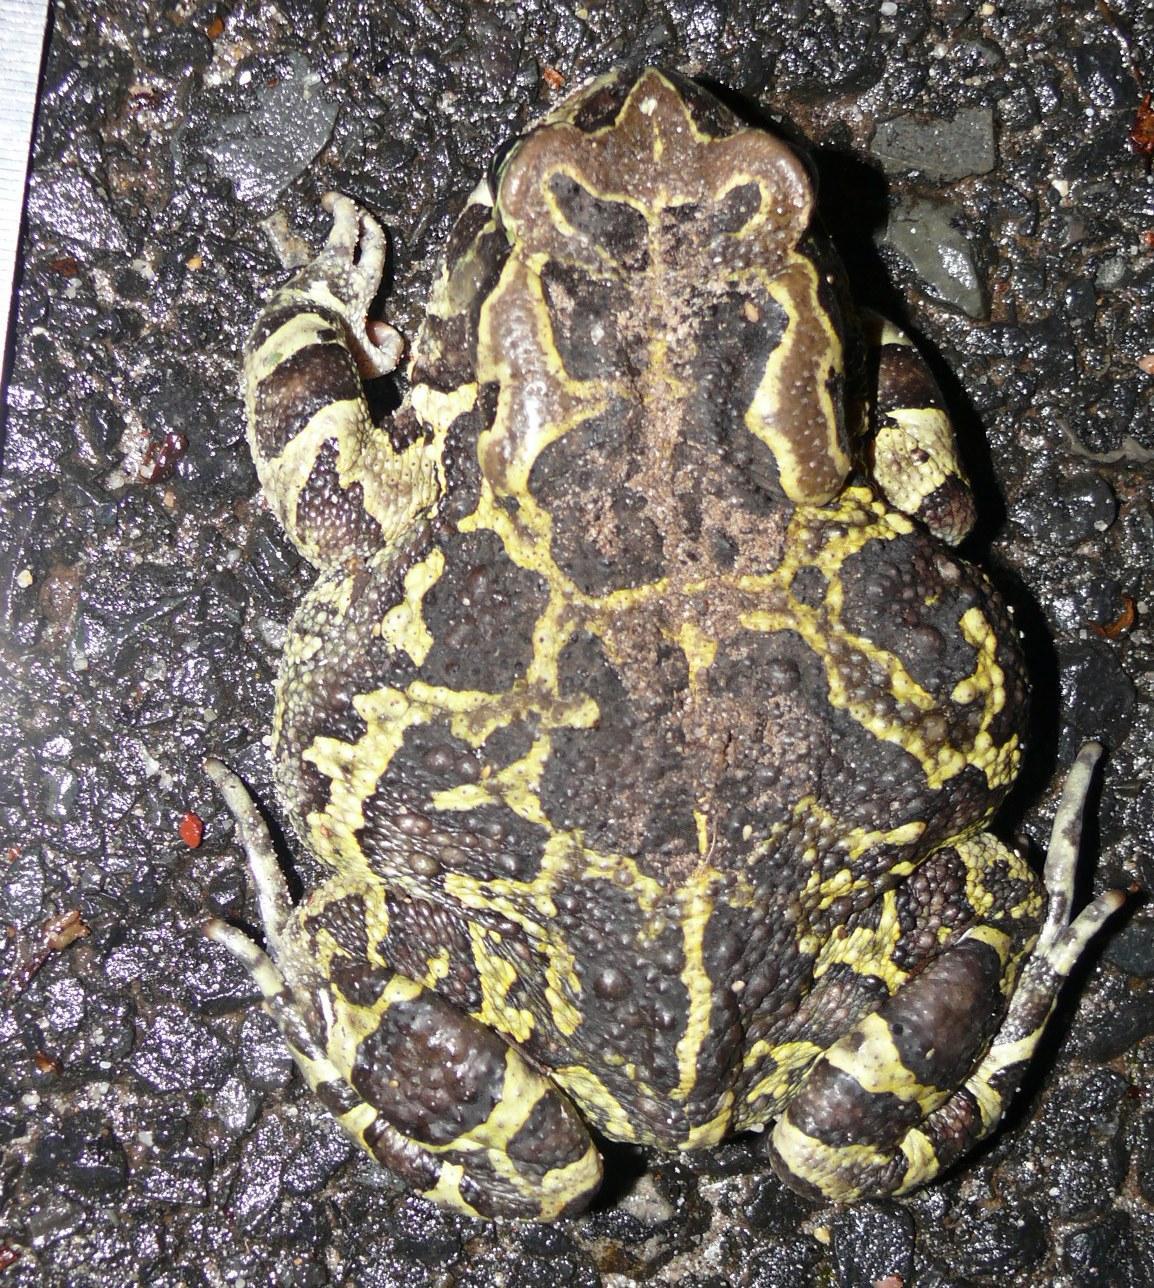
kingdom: Animalia
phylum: Chordata
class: Amphibia
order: Anura
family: Bufonidae
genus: Sclerophrys
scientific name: Sclerophrys pantherina
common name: Panther toad
